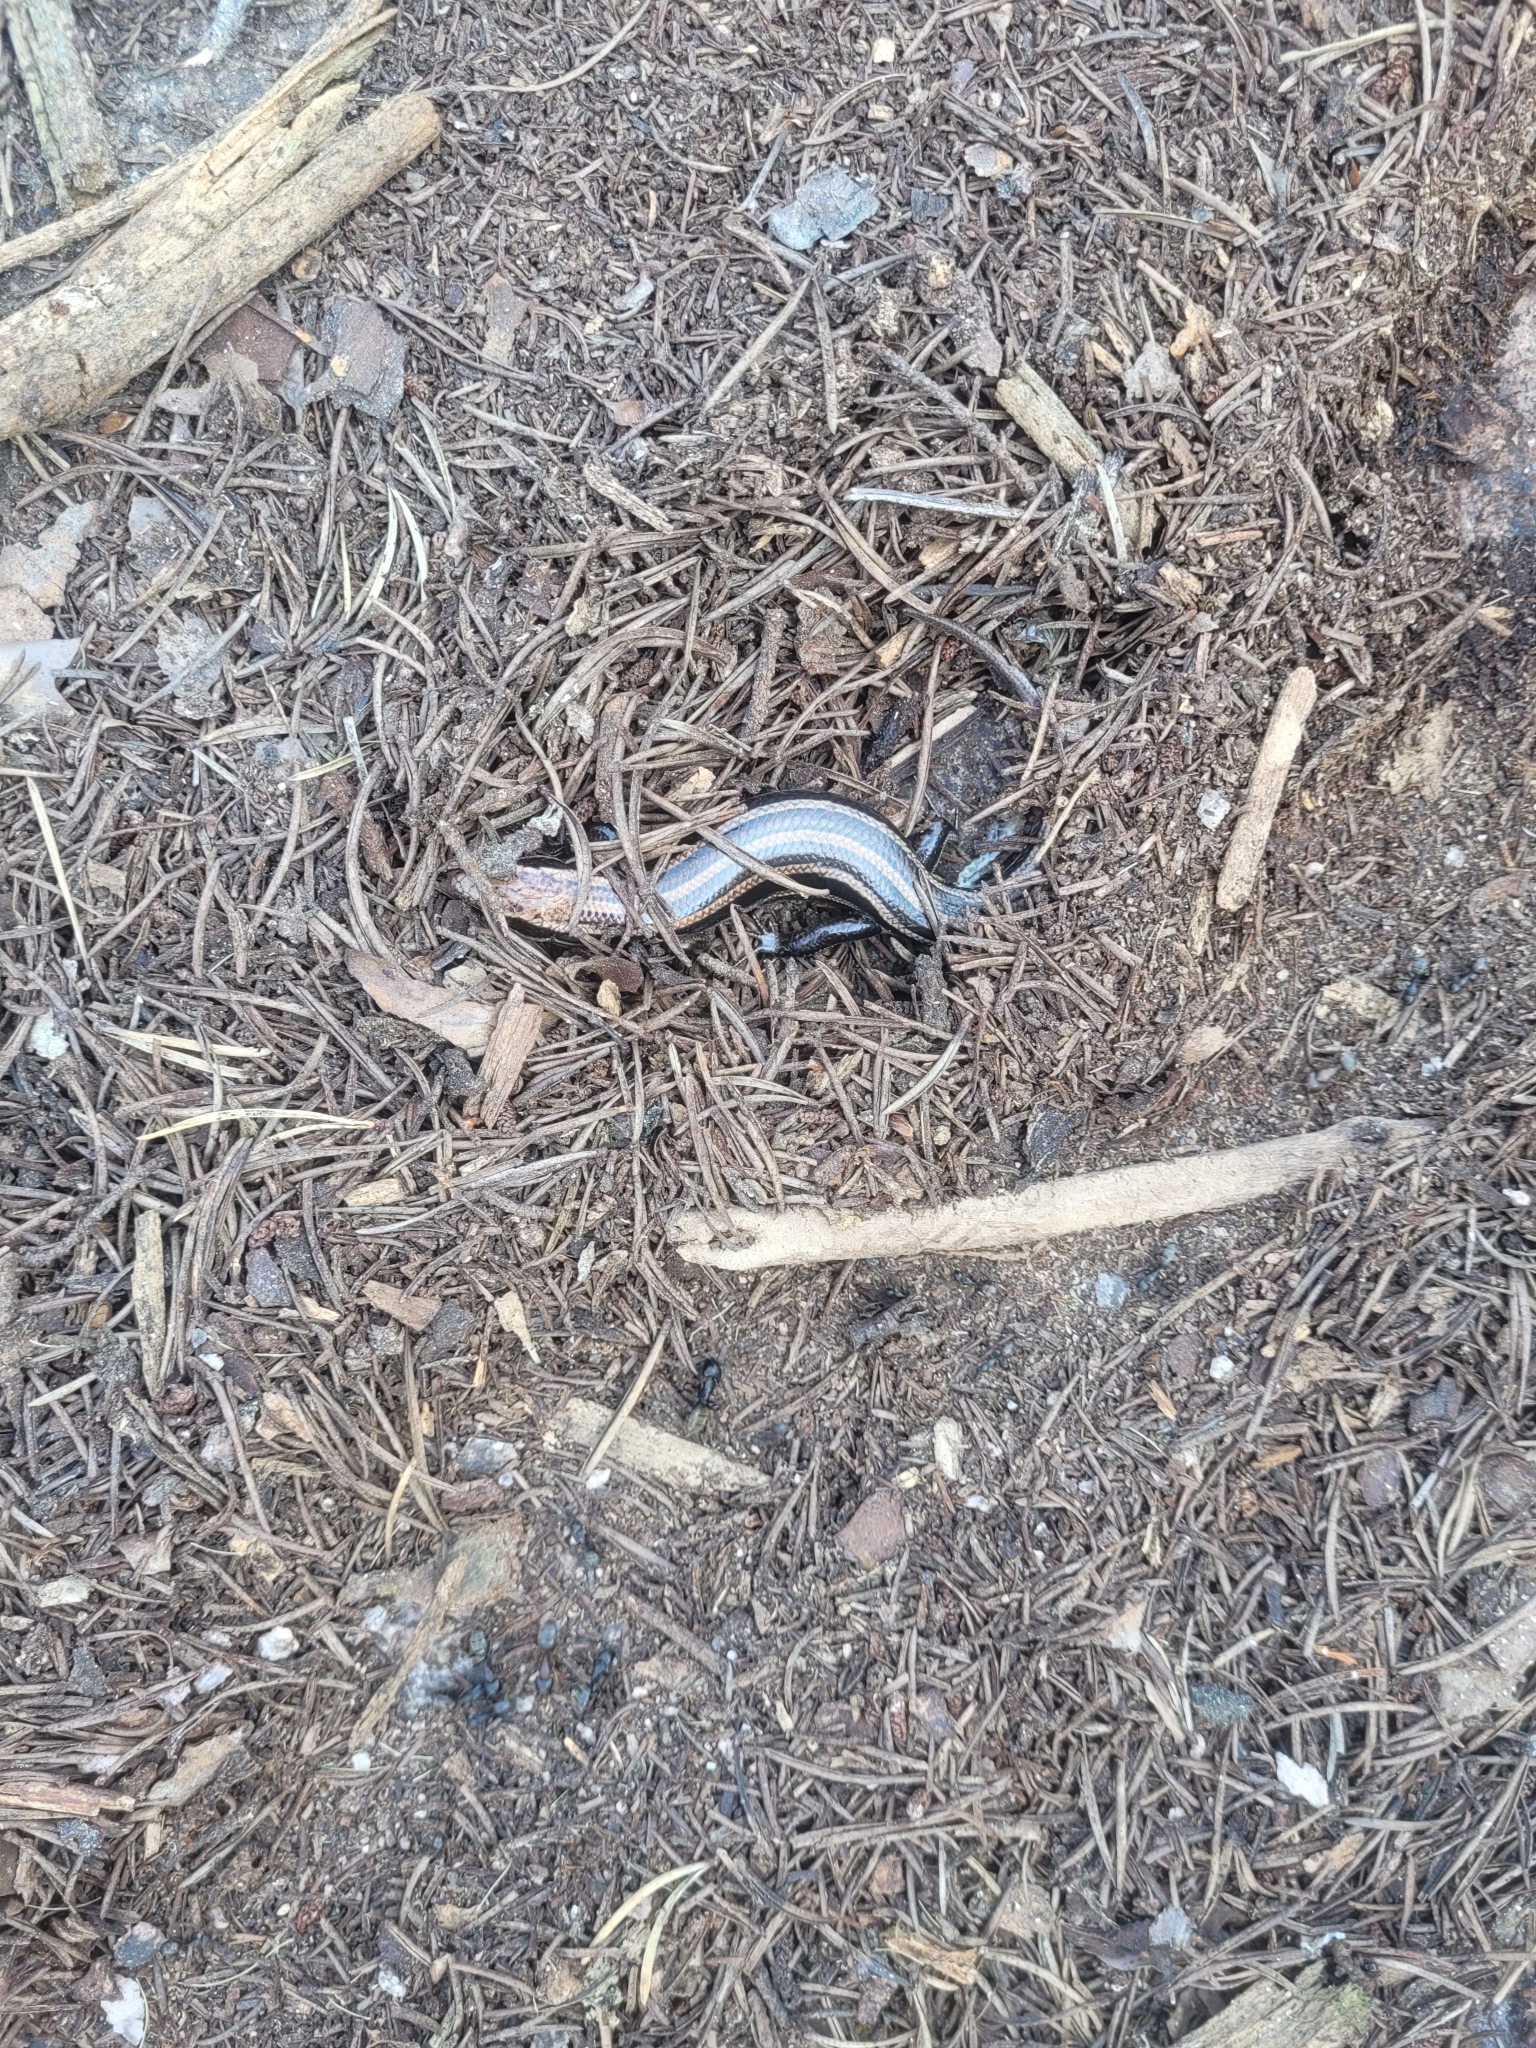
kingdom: Animalia
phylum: Chordata
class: Squamata
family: Scincidae
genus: Plestiodon
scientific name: Plestiodon fasciatus
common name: Five-lined skink
